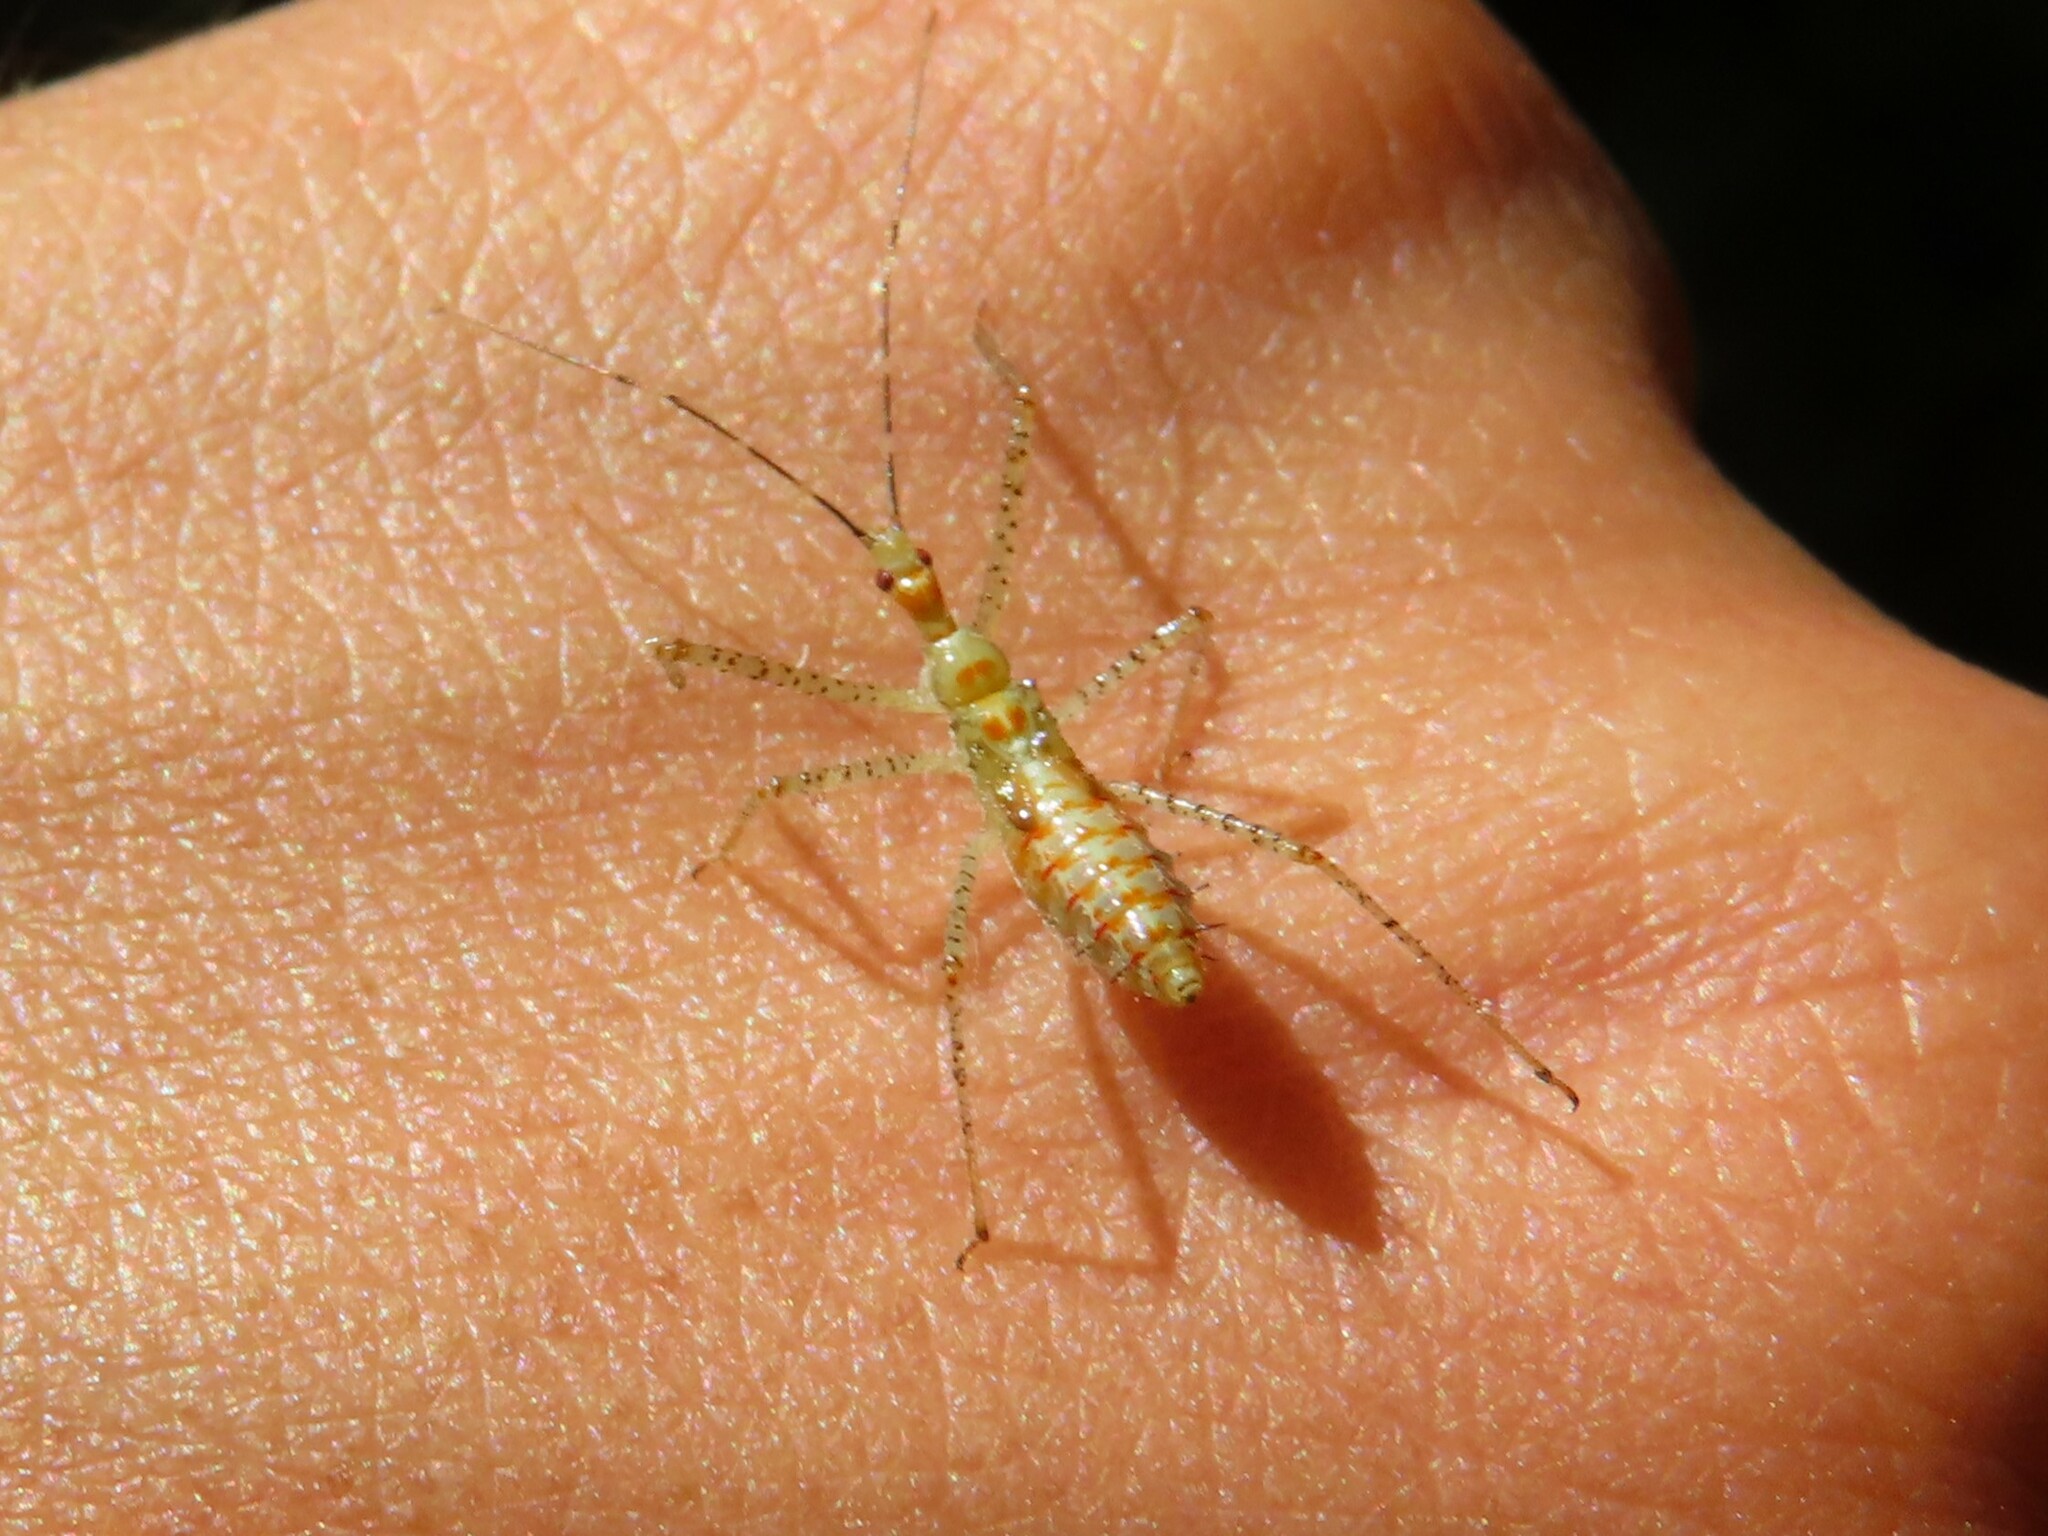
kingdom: Animalia
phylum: Arthropoda
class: Insecta
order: Hemiptera
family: Reduviidae
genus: Zelus
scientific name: Zelus renardii
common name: Assassin bug
